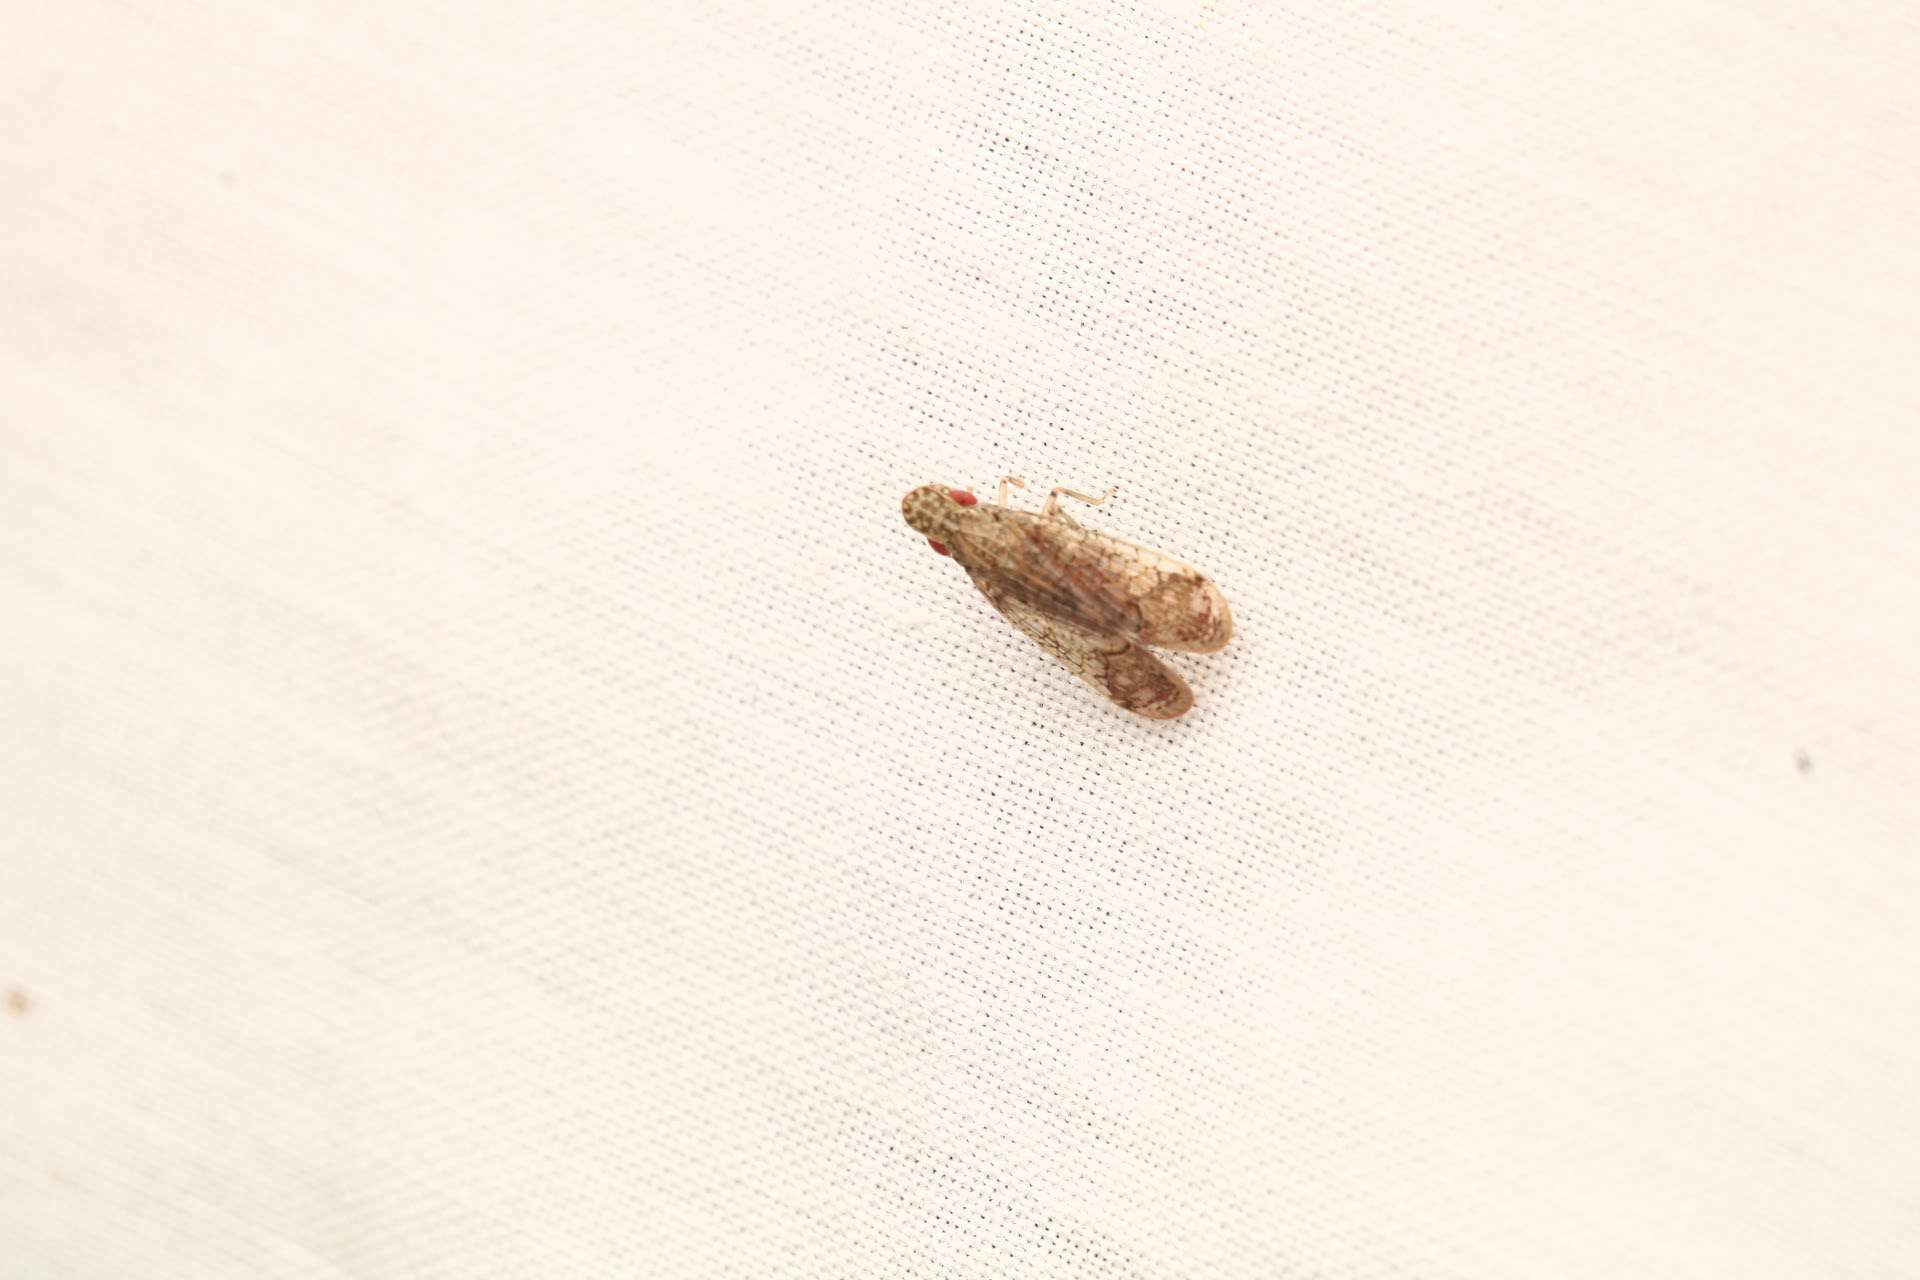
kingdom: Animalia
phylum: Arthropoda
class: Insecta
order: Hemiptera
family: Tropiduchidae
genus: Pelitropis
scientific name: Pelitropis rotulata
